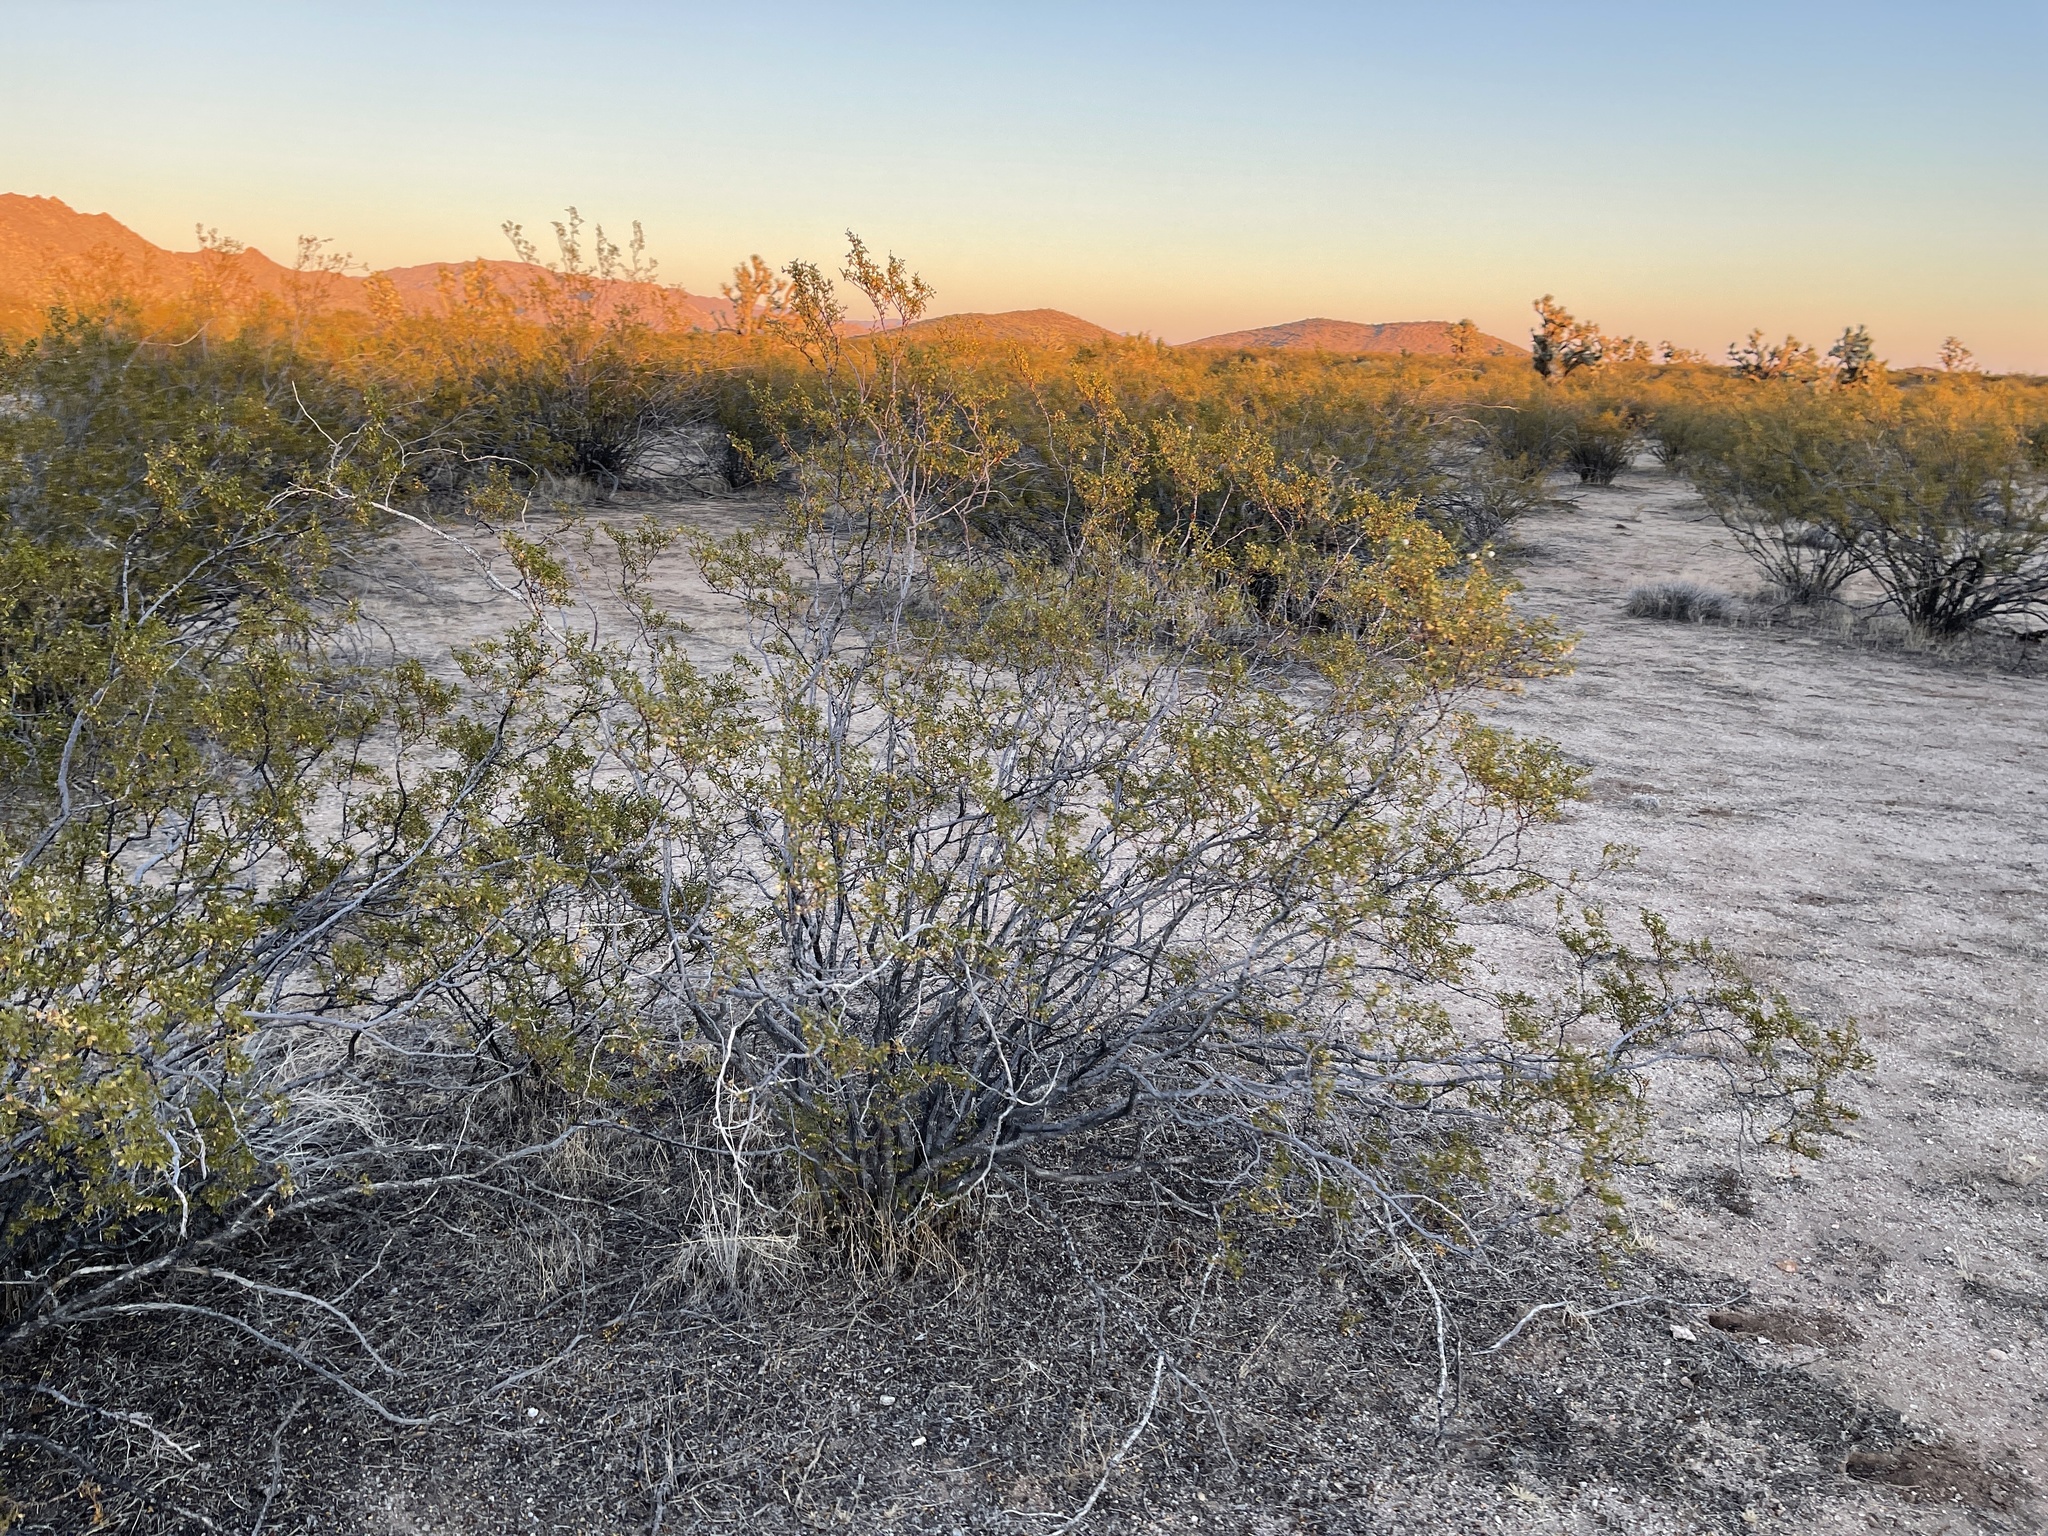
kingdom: Plantae
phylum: Tracheophyta
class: Magnoliopsida
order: Zygophyllales
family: Zygophyllaceae
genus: Larrea
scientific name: Larrea tridentata
